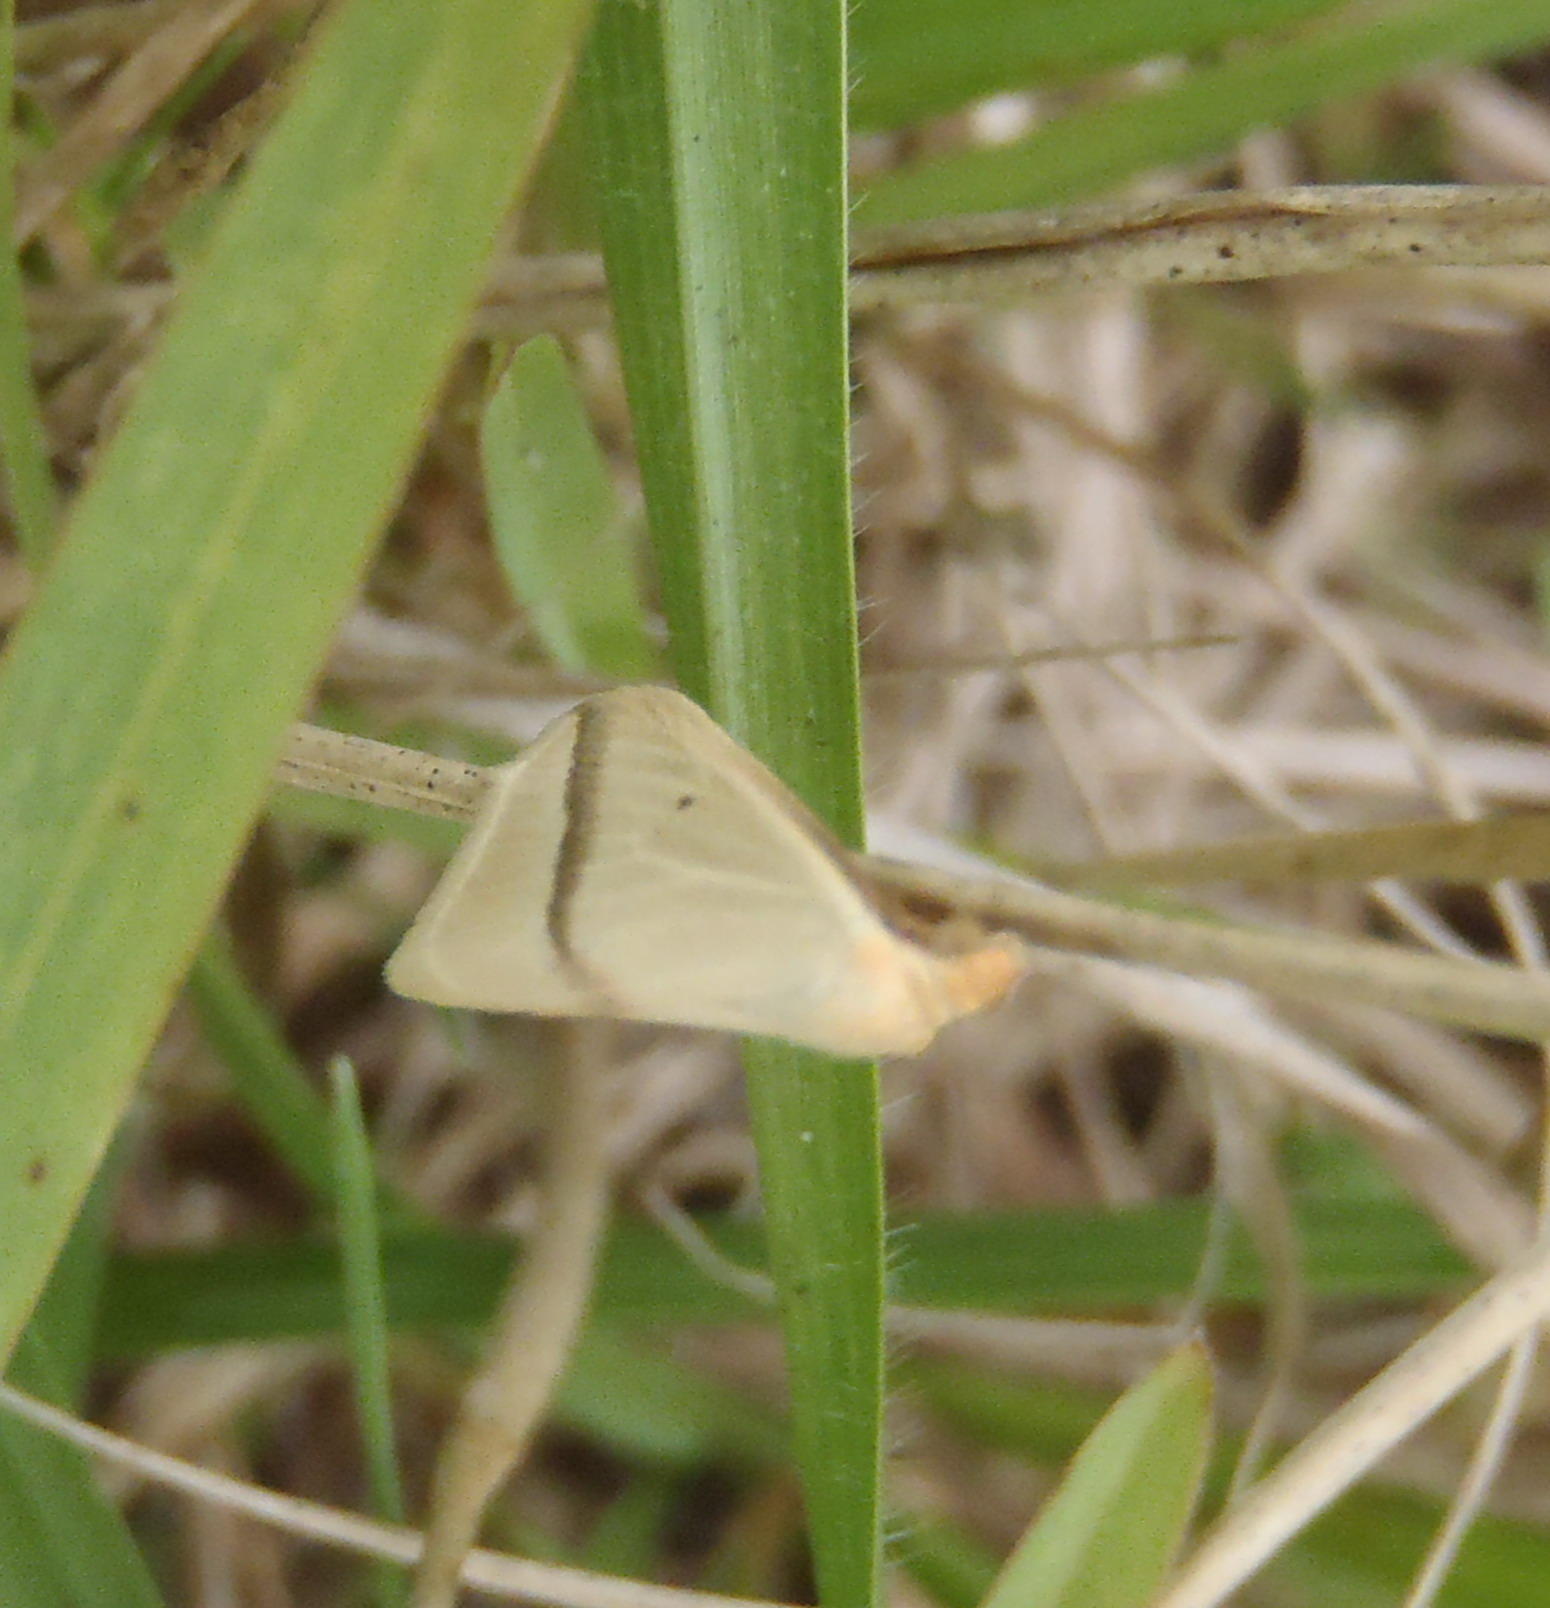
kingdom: Animalia
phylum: Arthropoda
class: Insecta
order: Lepidoptera
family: Geometridae
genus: Rhodometra
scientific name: Rhodometra sacraria
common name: Vestal
